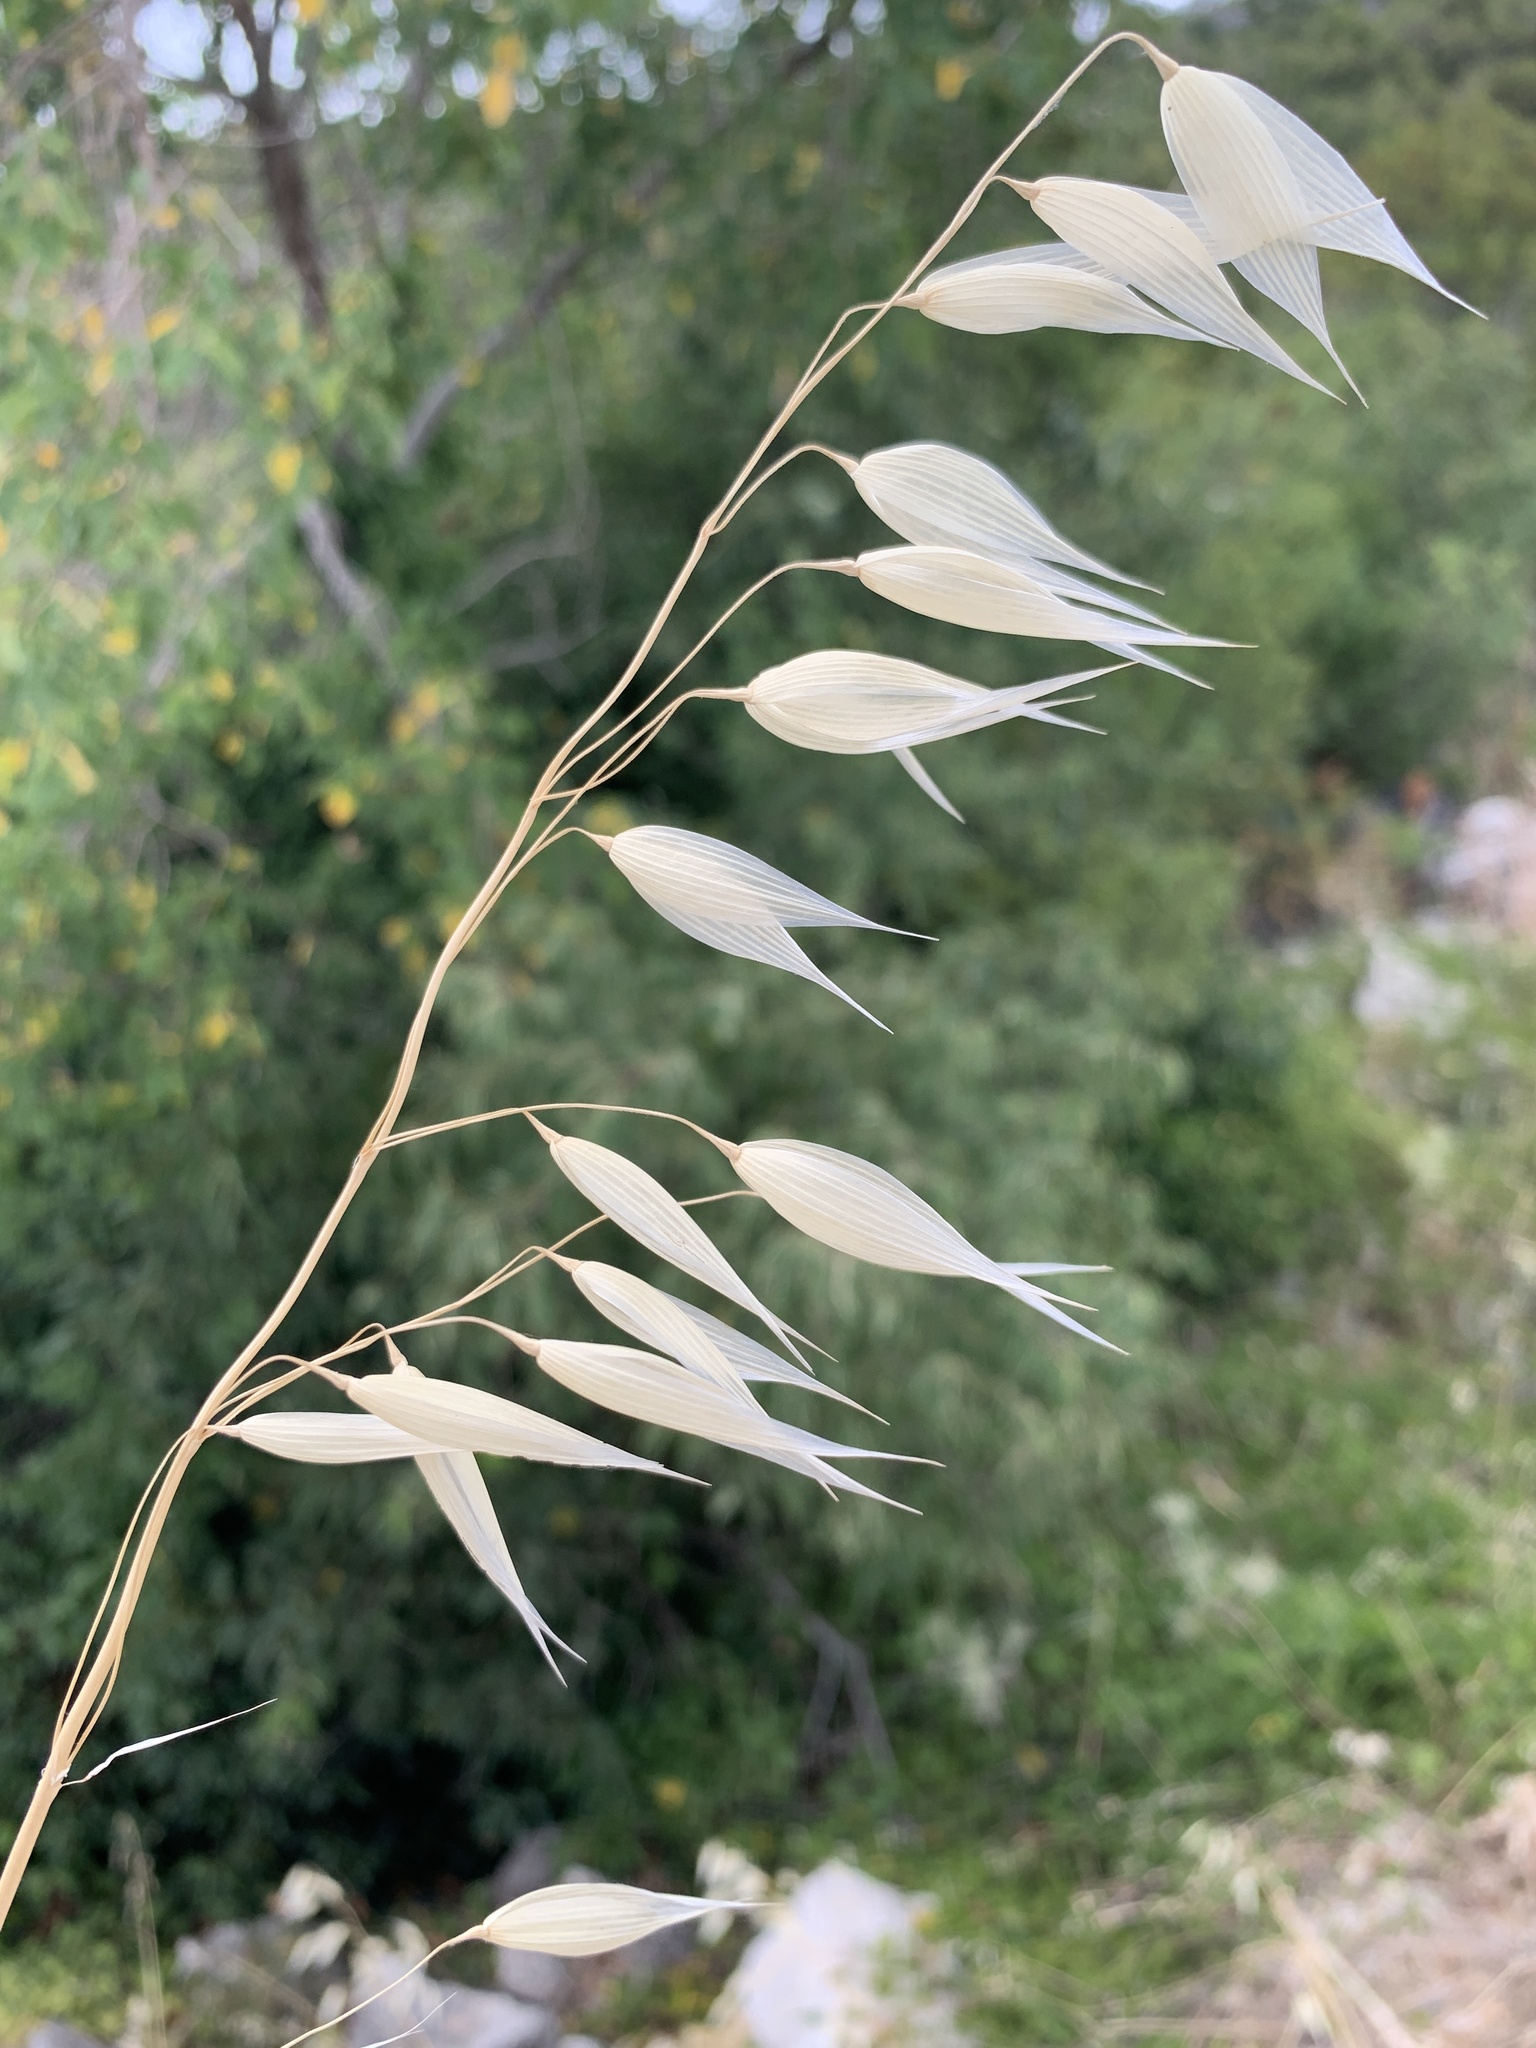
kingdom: Plantae
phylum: Tracheophyta
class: Liliopsida
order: Poales
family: Poaceae
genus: Avena
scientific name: Avena
